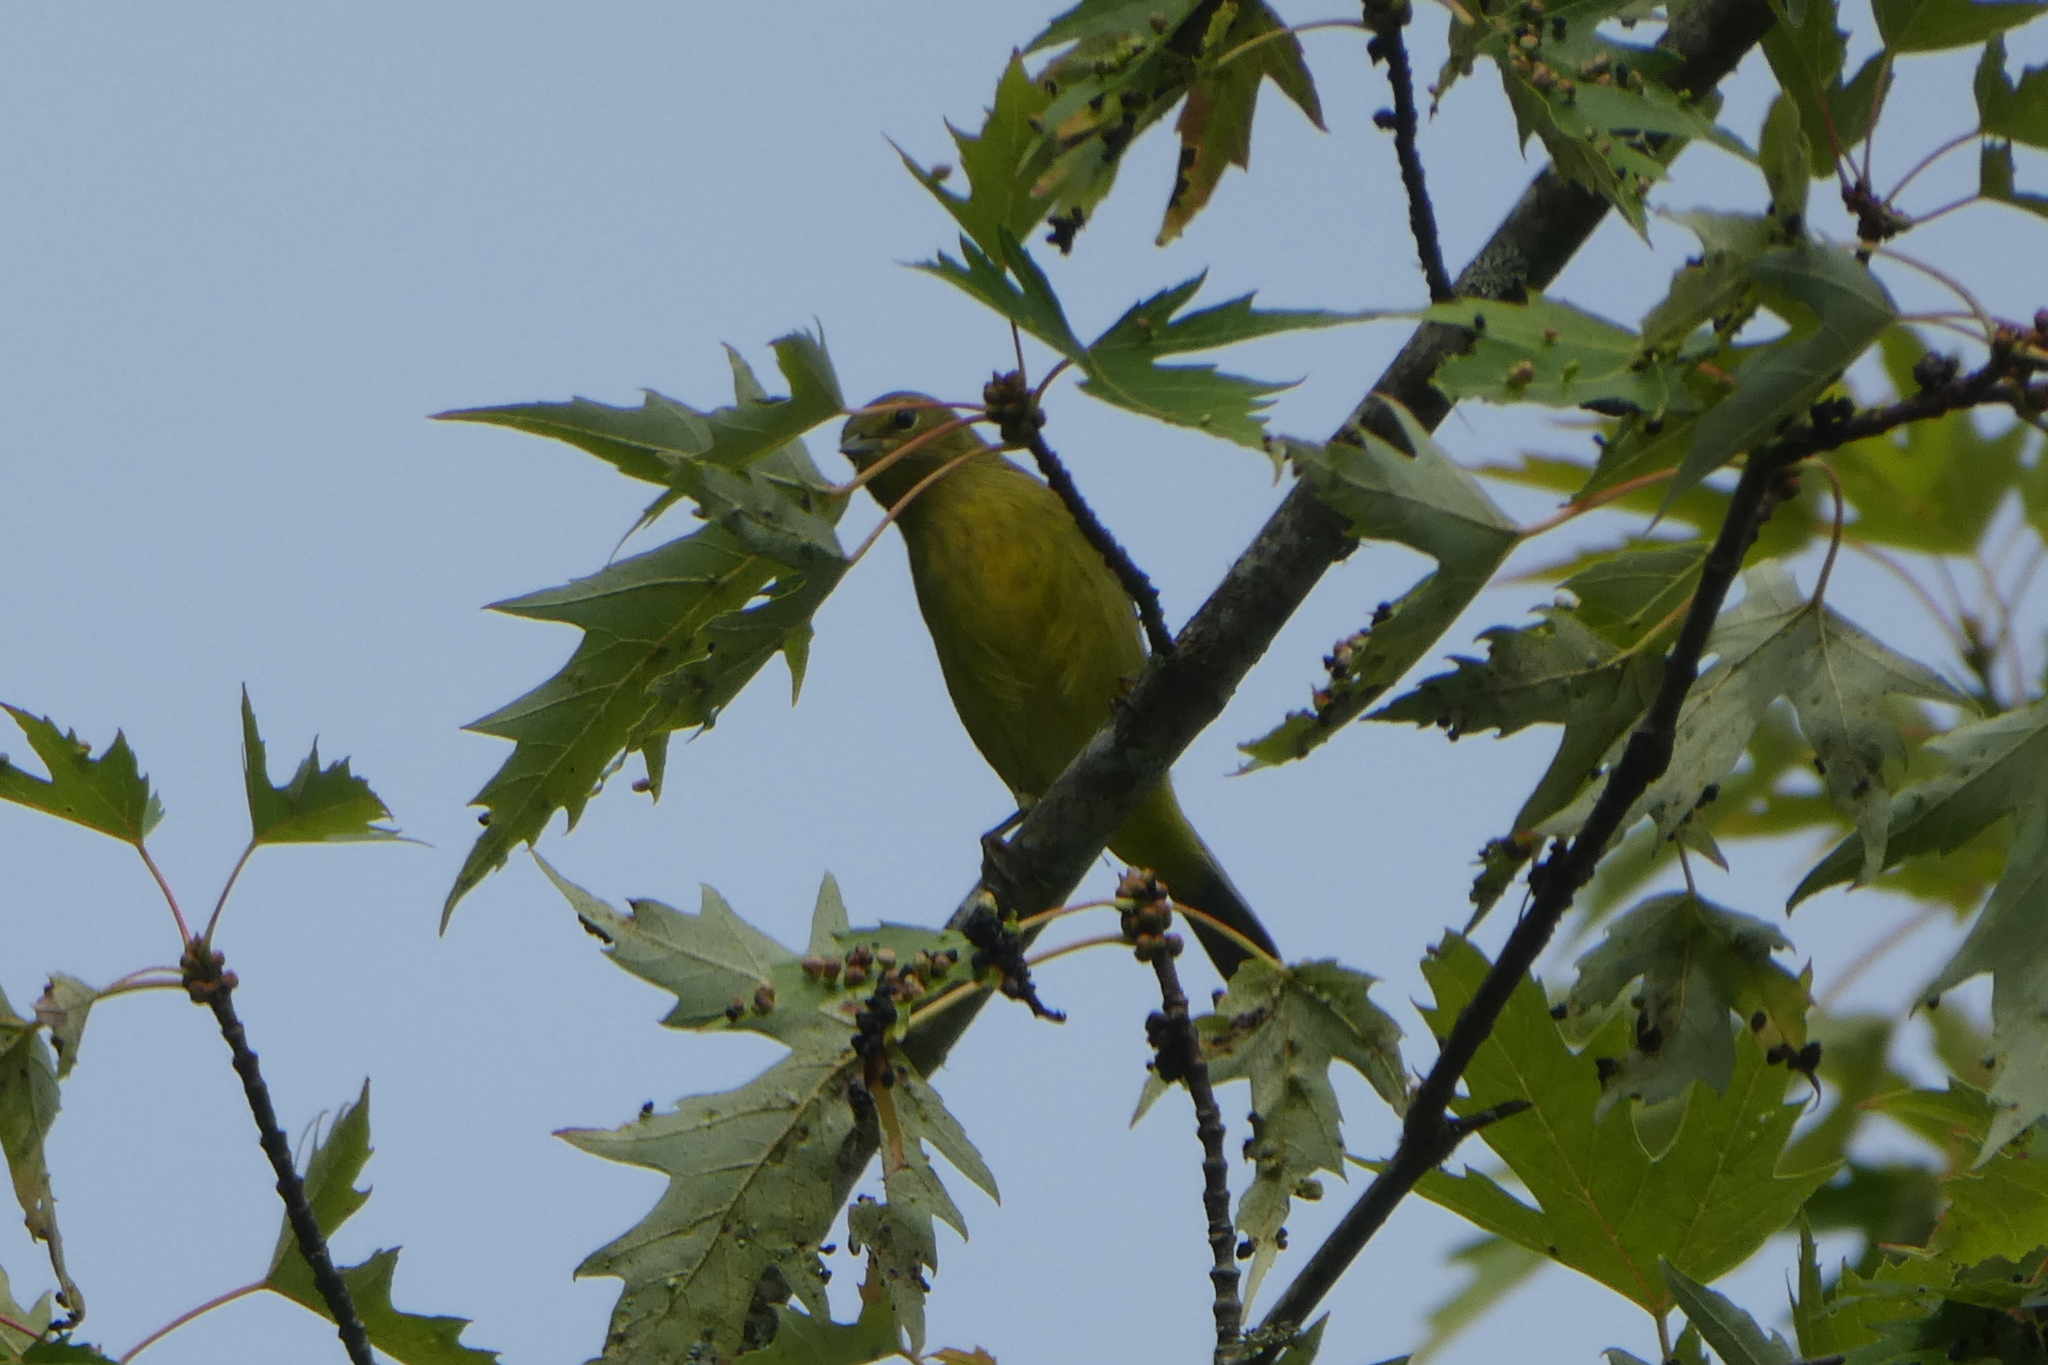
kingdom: Animalia
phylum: Chordata
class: Aves
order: Passeriformes
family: Parulidae
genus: Leiothlypis
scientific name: Leiothlypis celata
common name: Orange-crowned warbler
